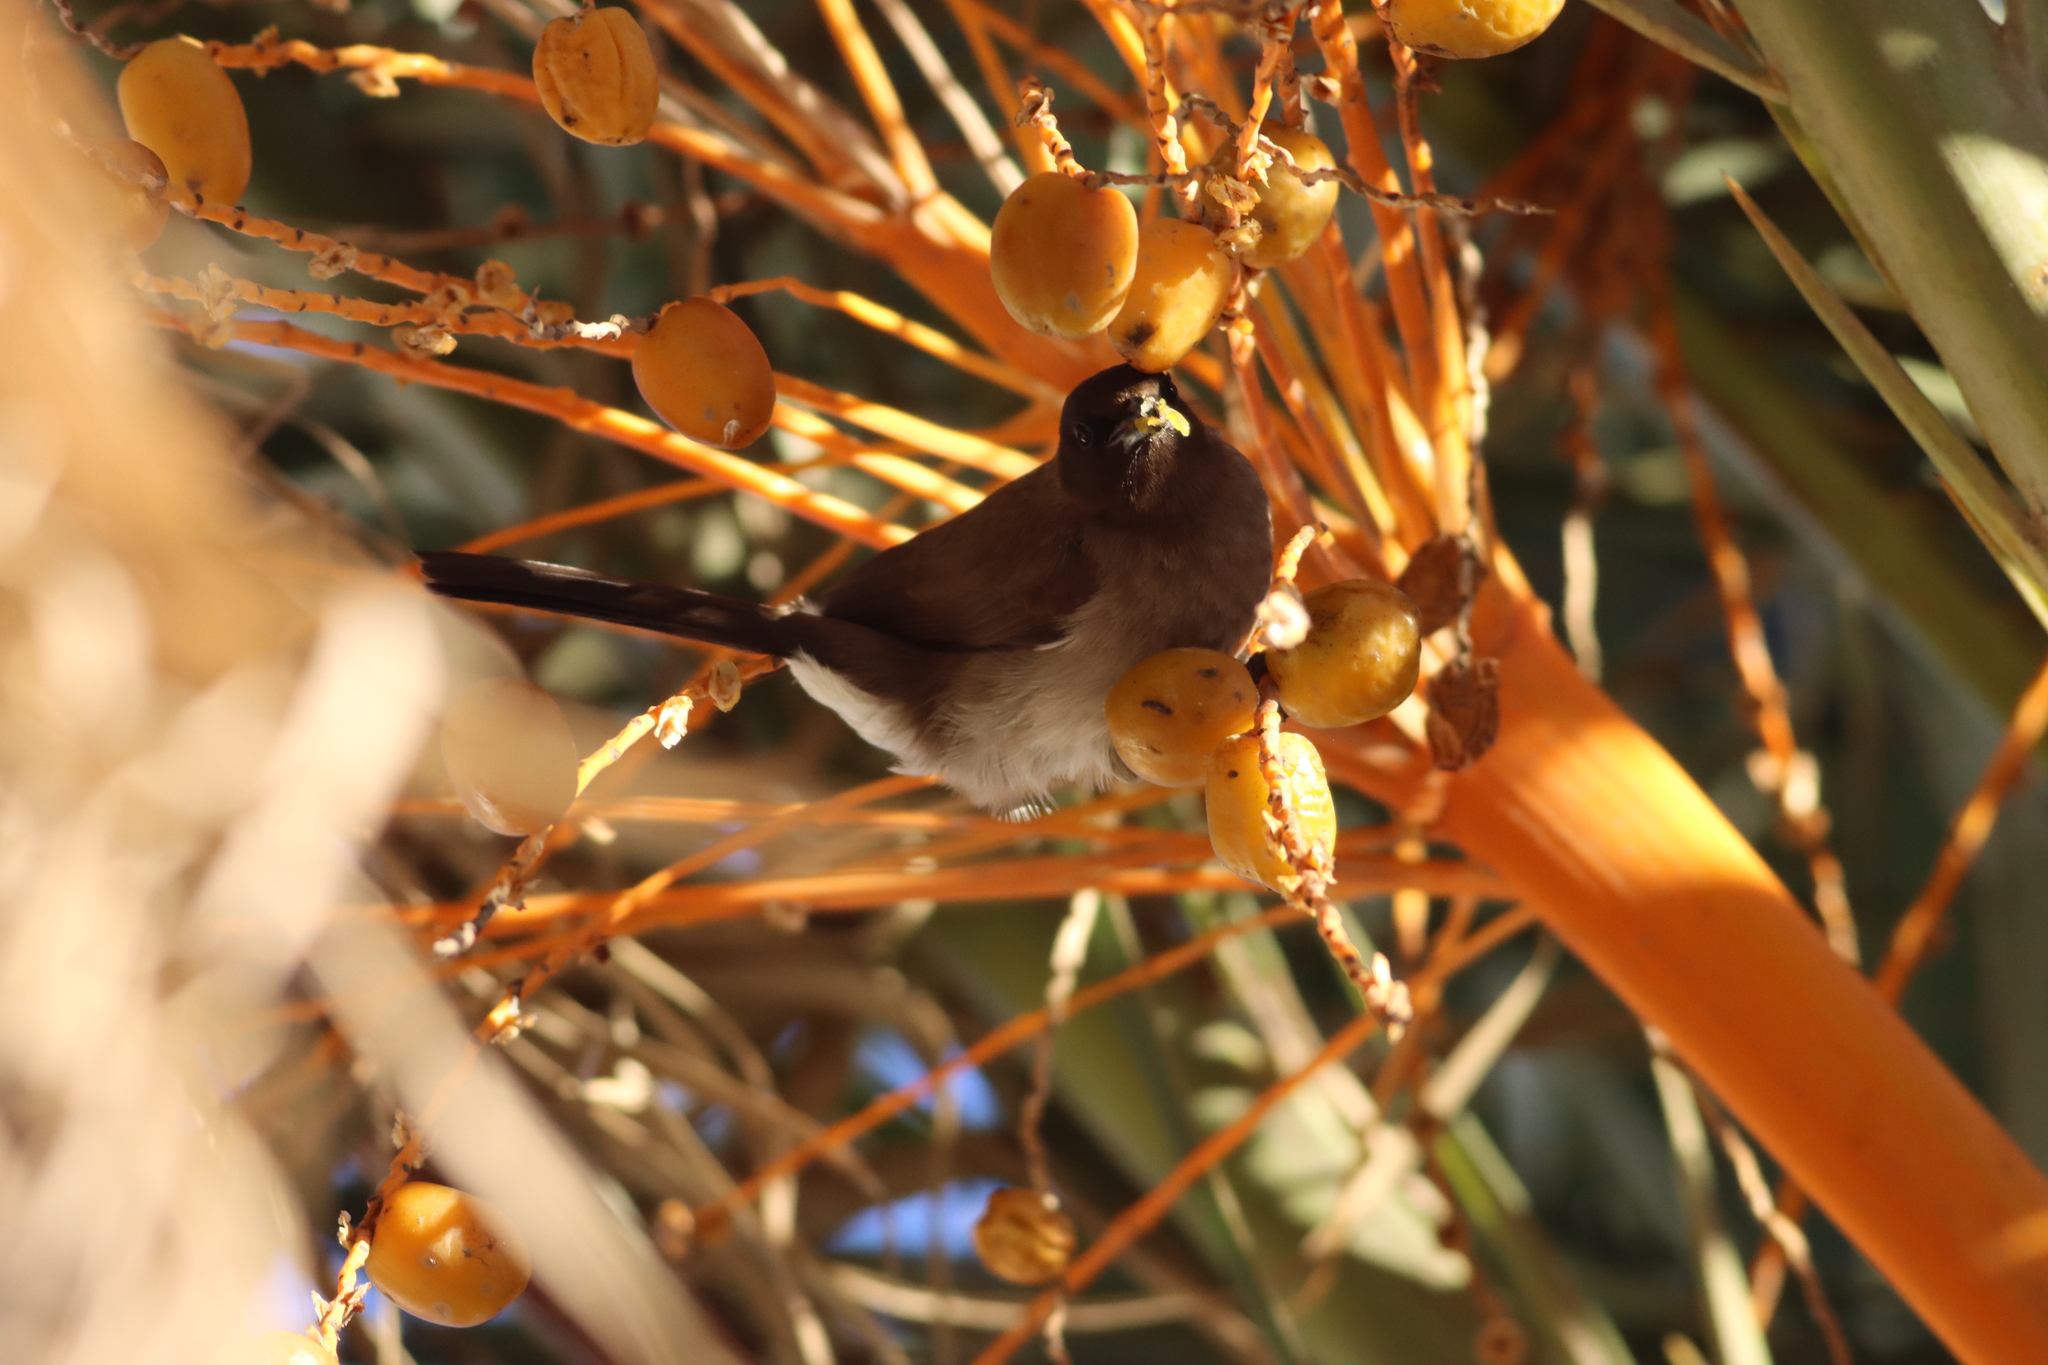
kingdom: Animalia
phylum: Chordata
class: Aves
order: Passeriformes
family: Pycnonotidae
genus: Pycnonotus
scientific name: Pycnonotus barbatus
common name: Common bulbul
